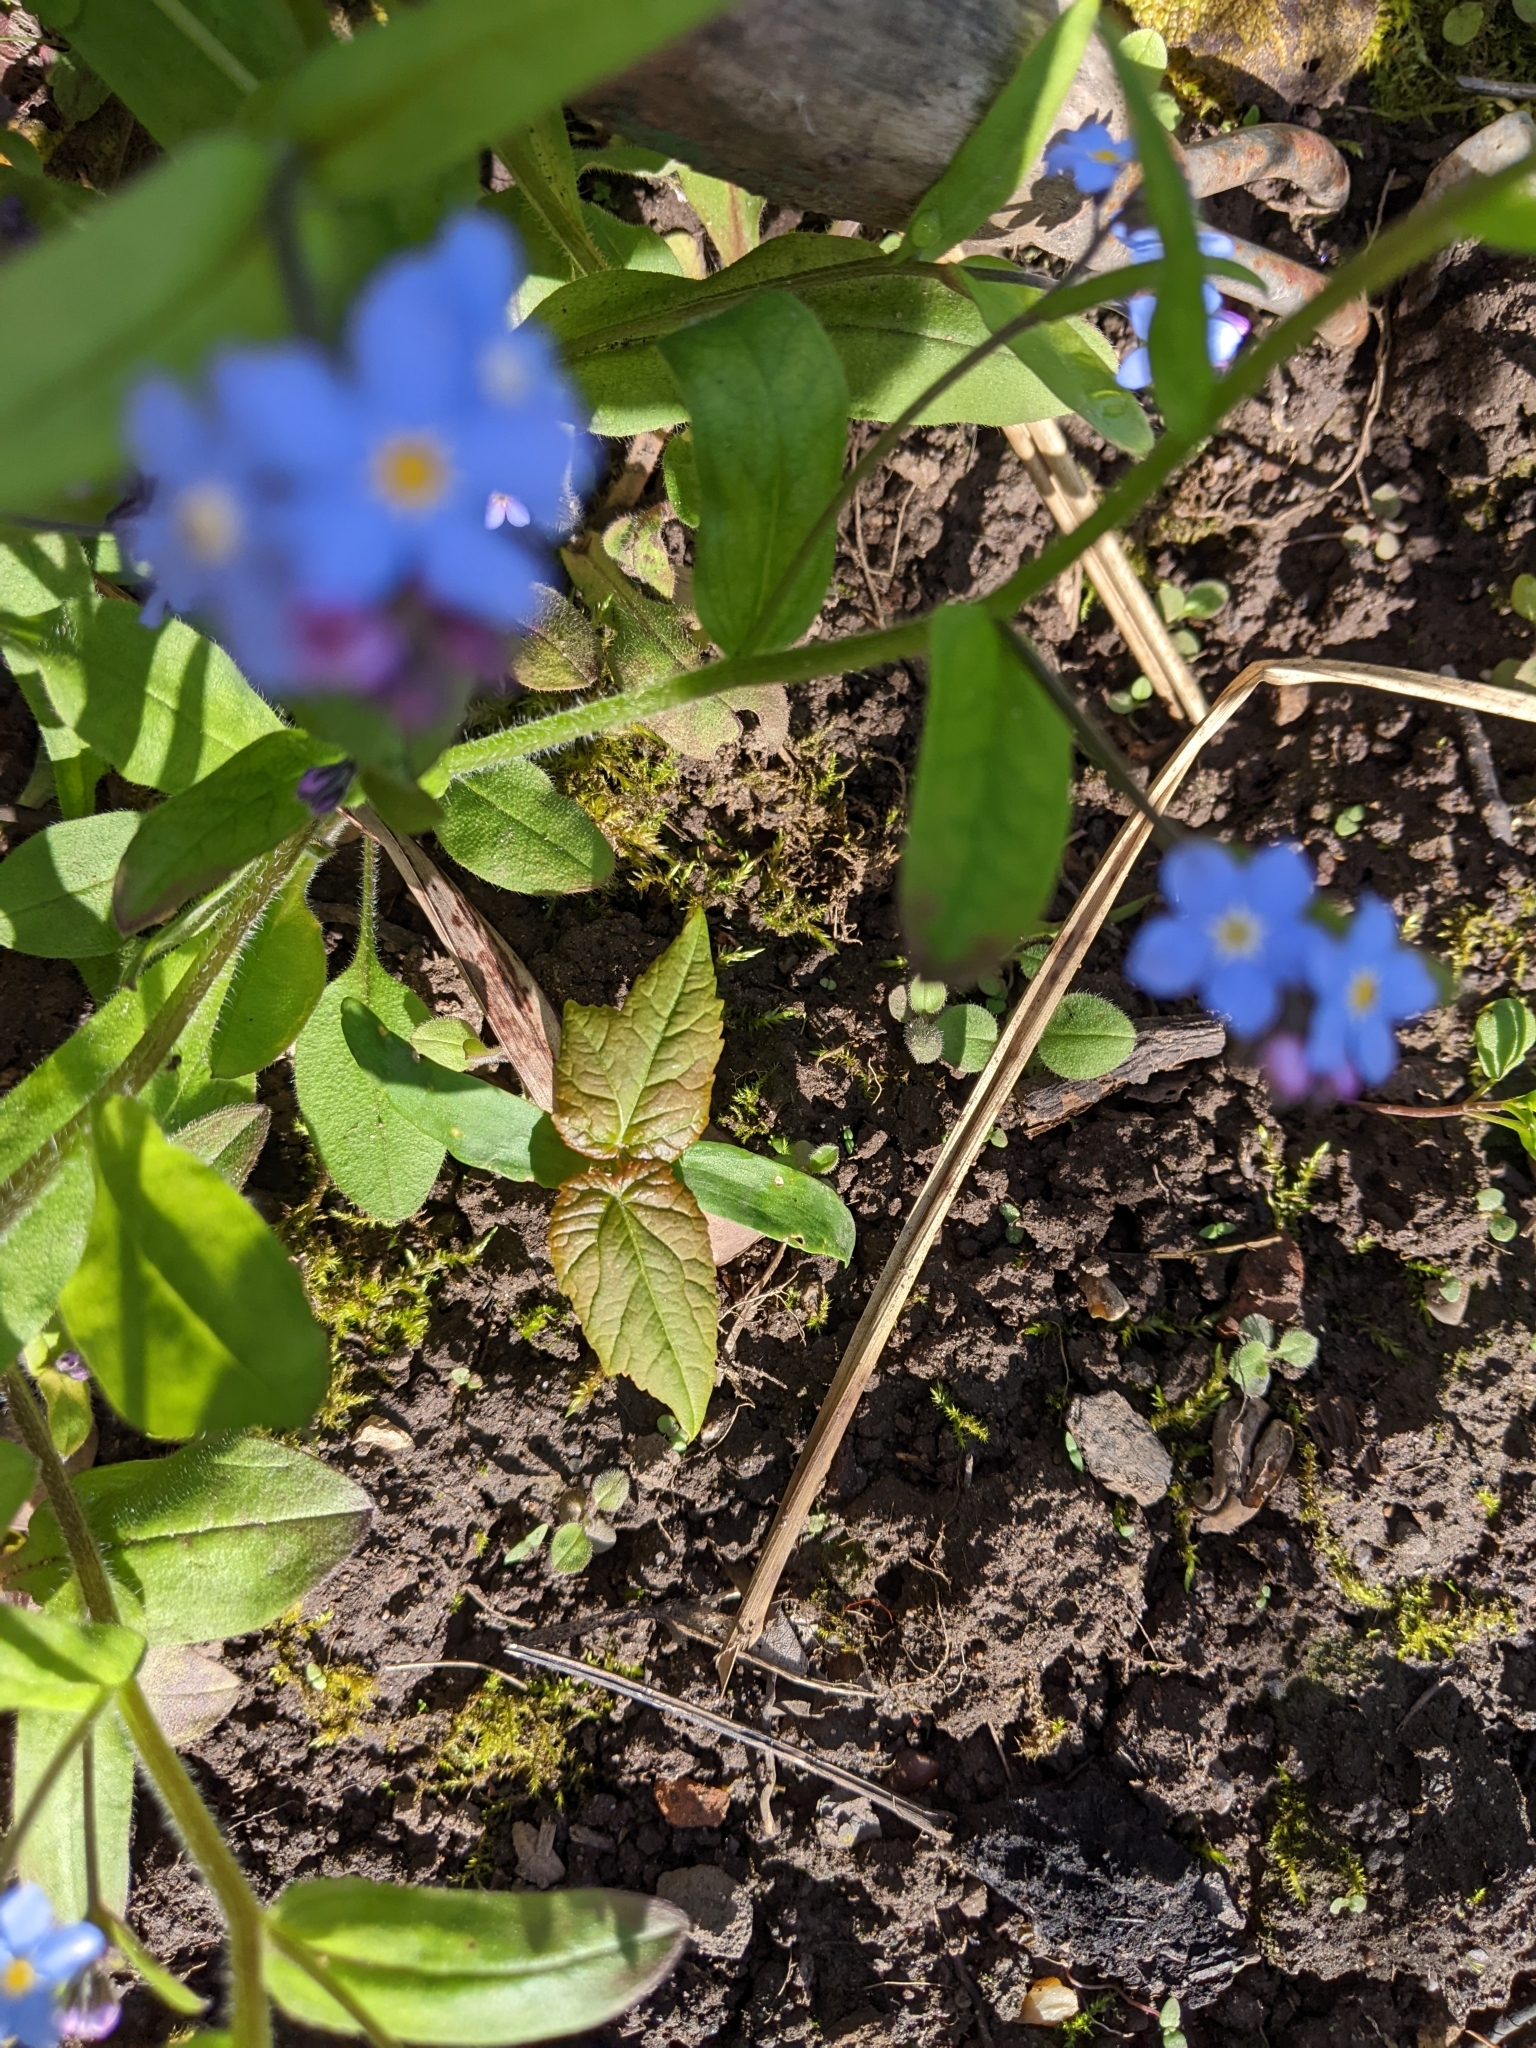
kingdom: Plantae
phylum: Tracheophyta
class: Magnoliopsida
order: Sapindales
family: Sapindaceae
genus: Acer
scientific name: Acer pseudoplatanus
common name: Sycamore
